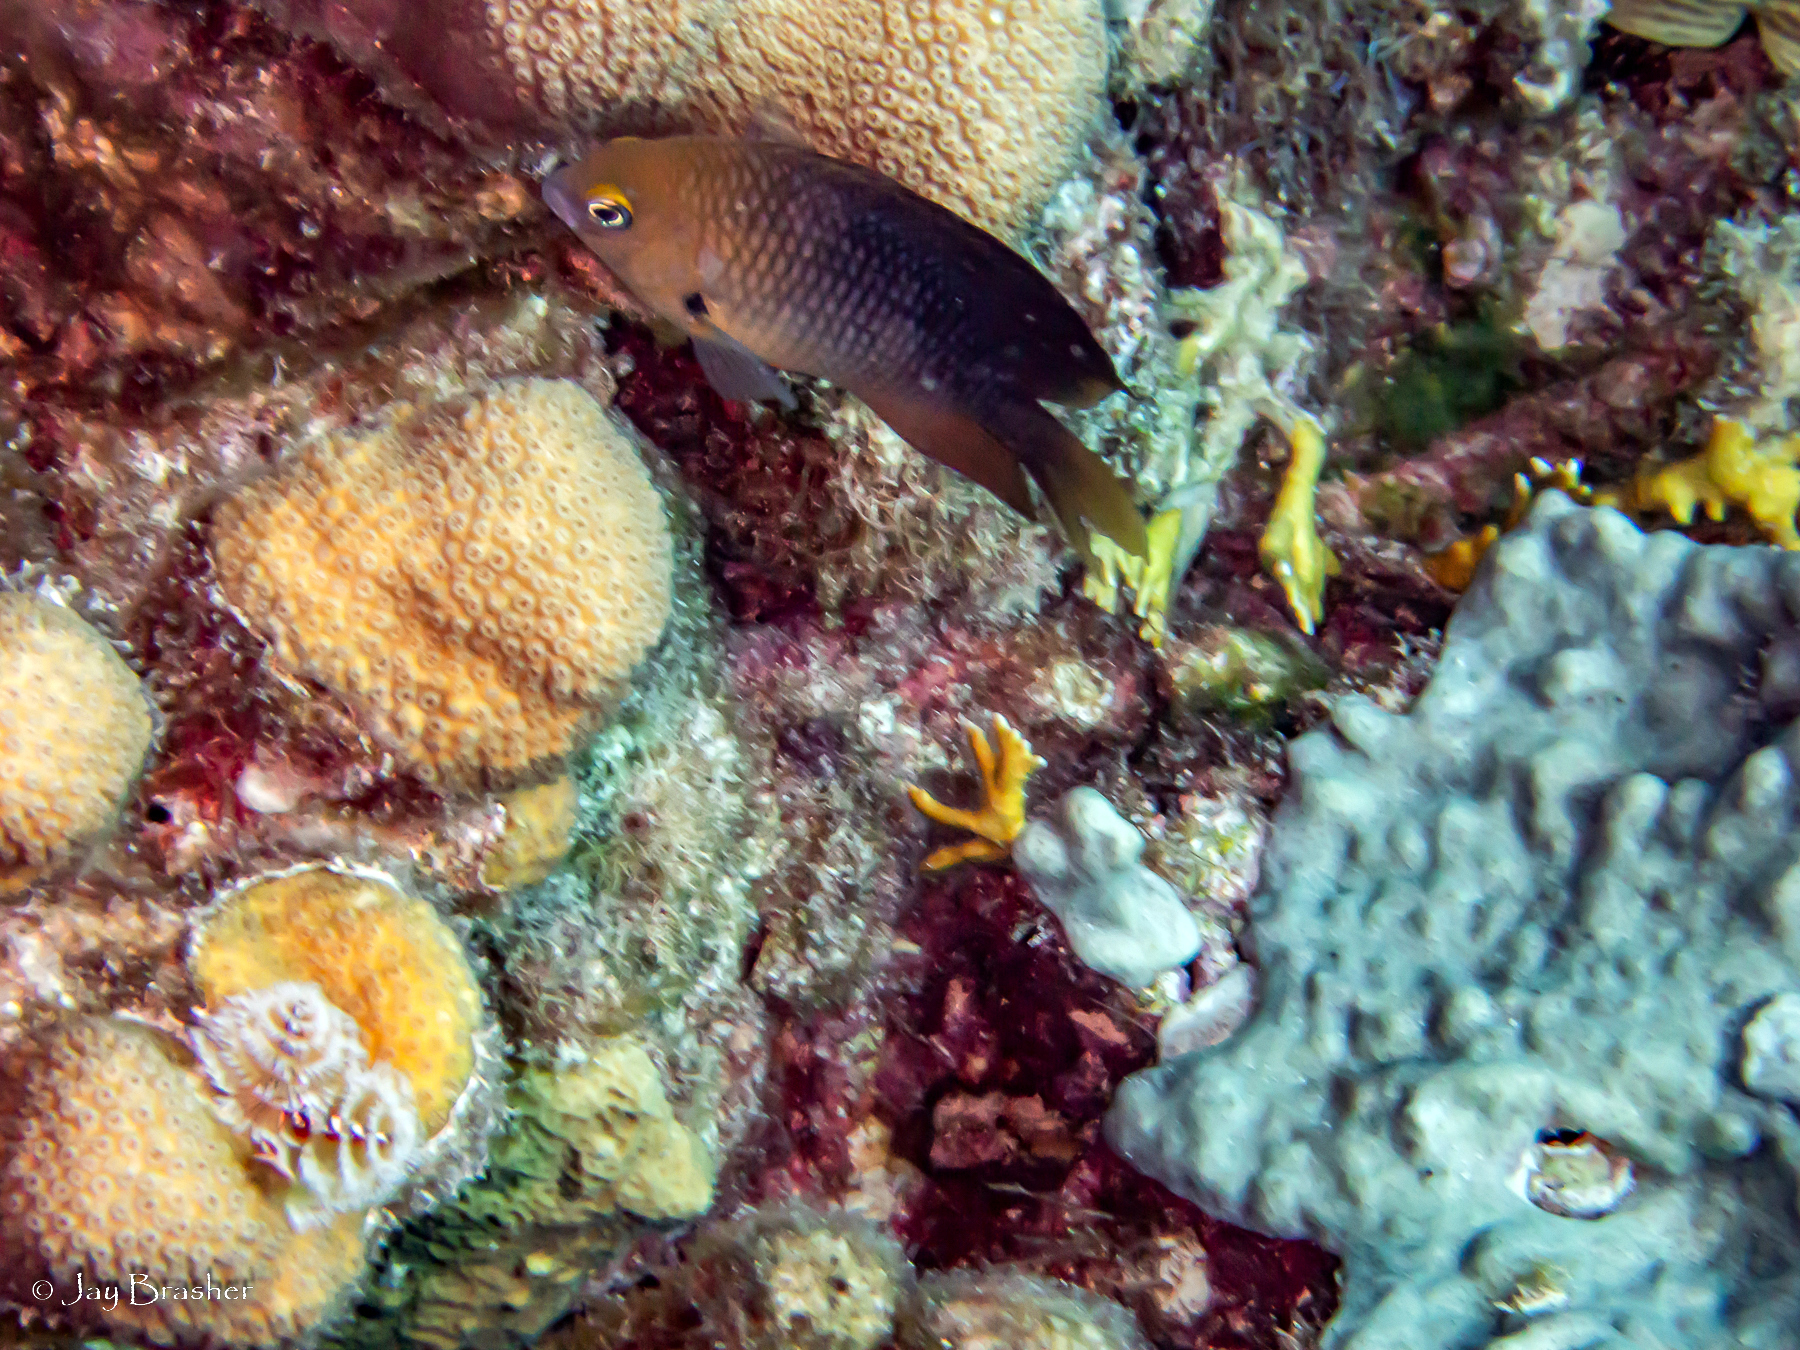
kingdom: Animalia
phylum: Chordata
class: Ascidiacea
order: Aplousobranchia
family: Didemnidae
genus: Trididemnum
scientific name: Trididemnum solidum
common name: Overgrowing mat tunicate
